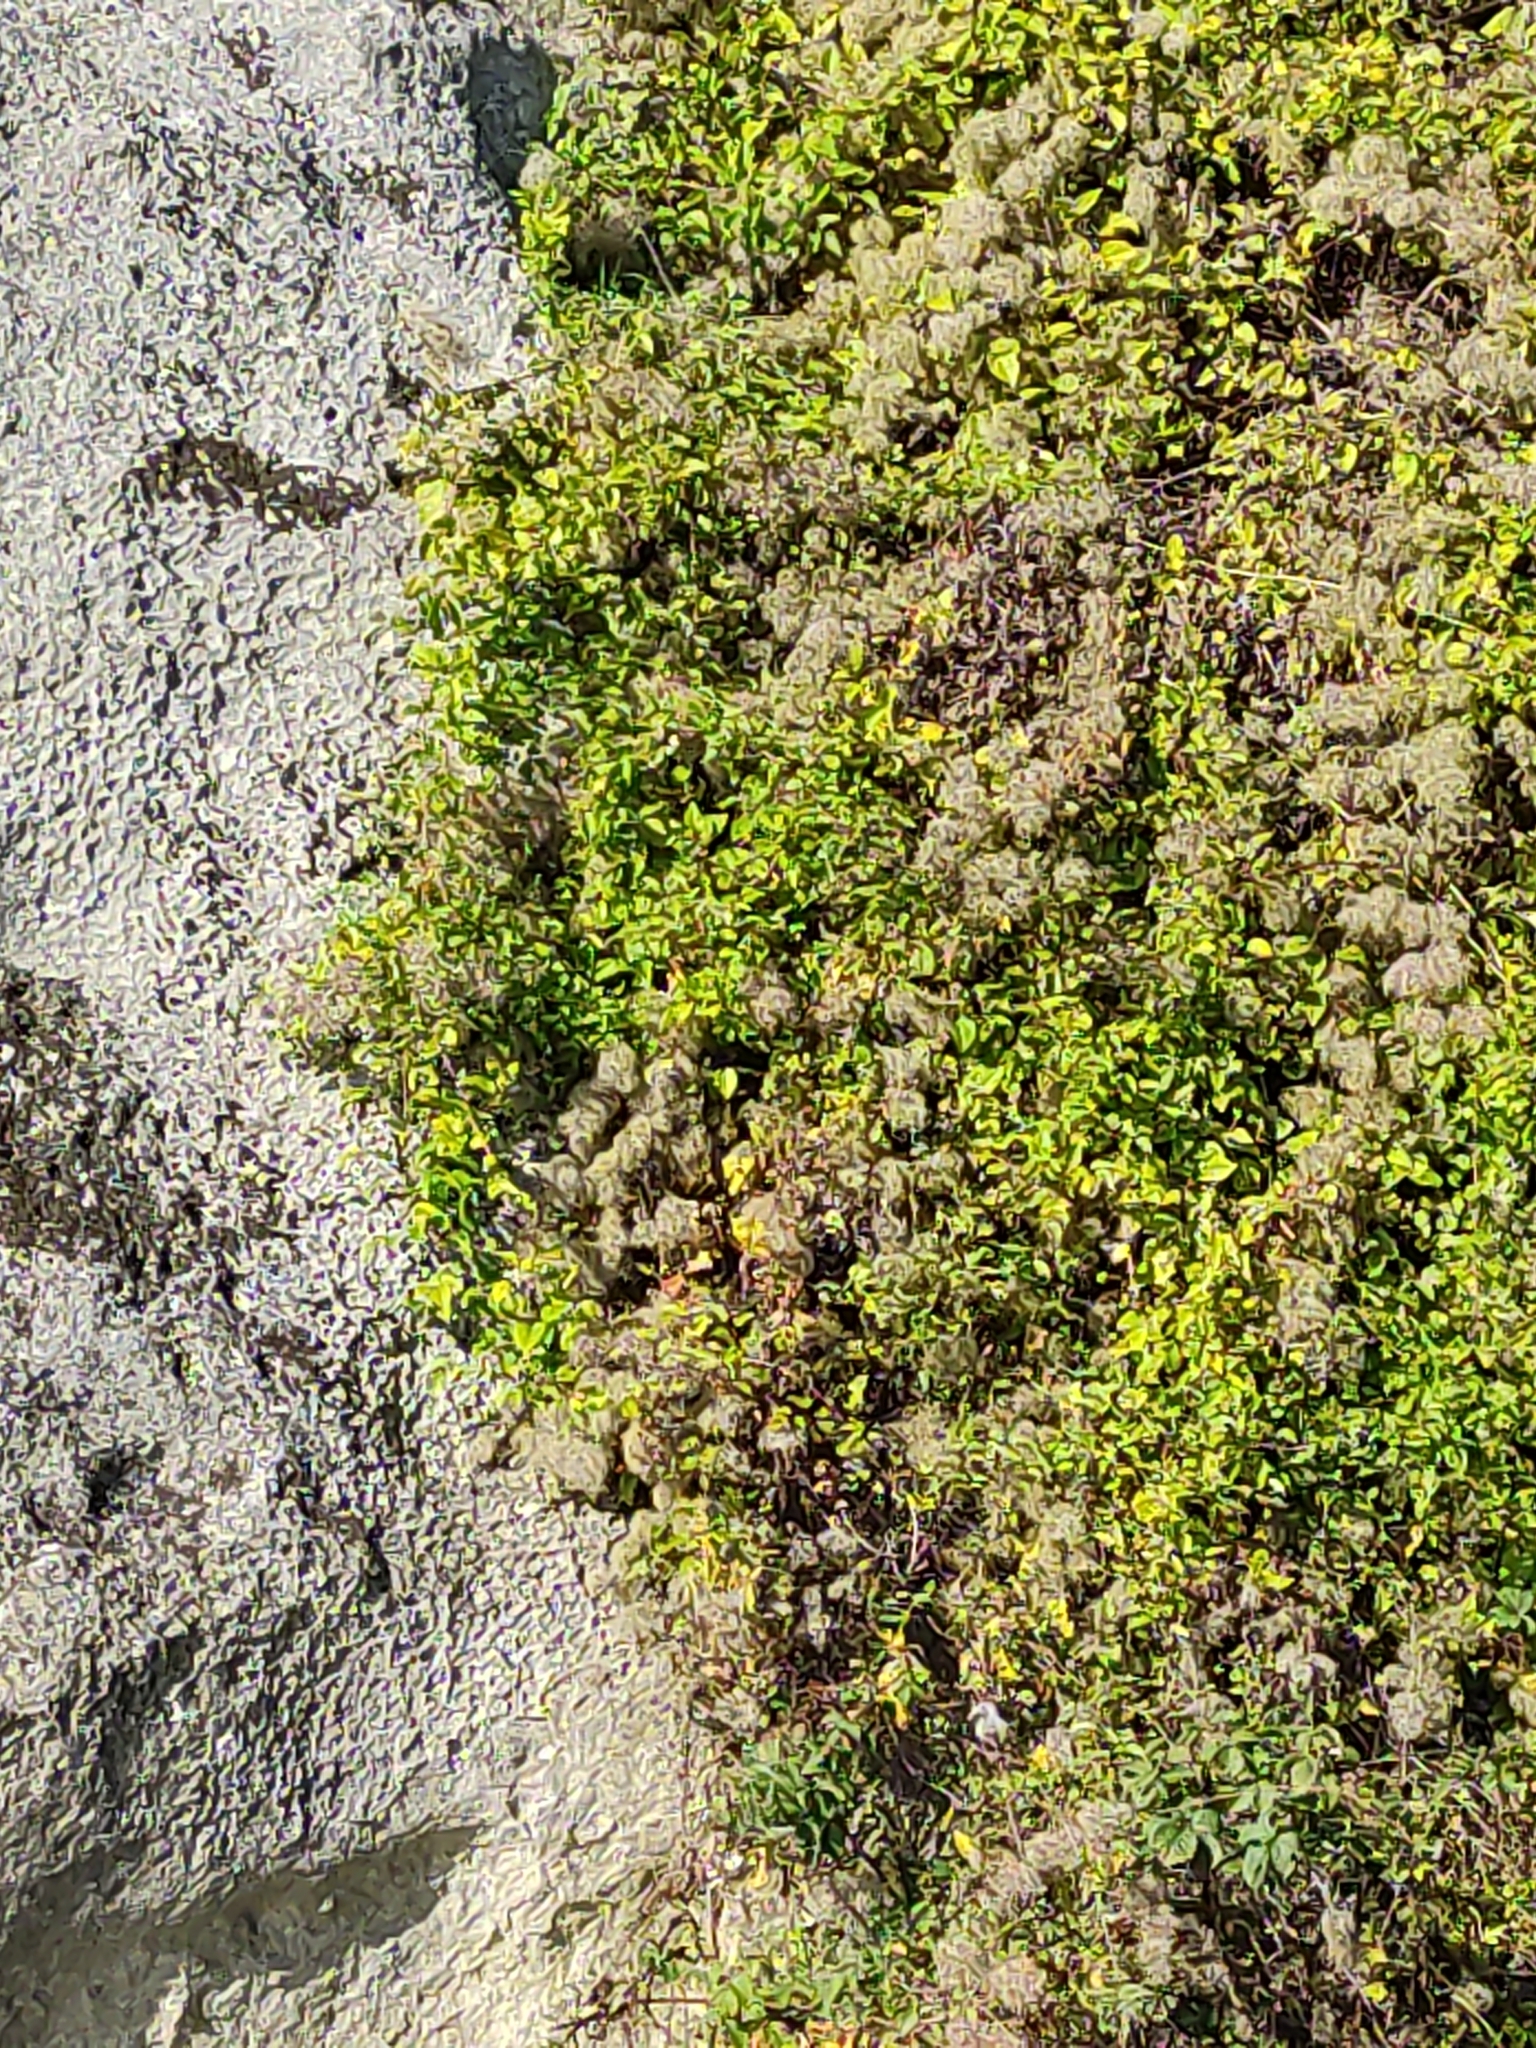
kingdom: Plantae
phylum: Tracheophyta
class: Magnoliopsida
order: Ranunculales
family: Ranunculaceae
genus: Clematis
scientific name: Clematis vitalba
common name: Evergreen clematis
